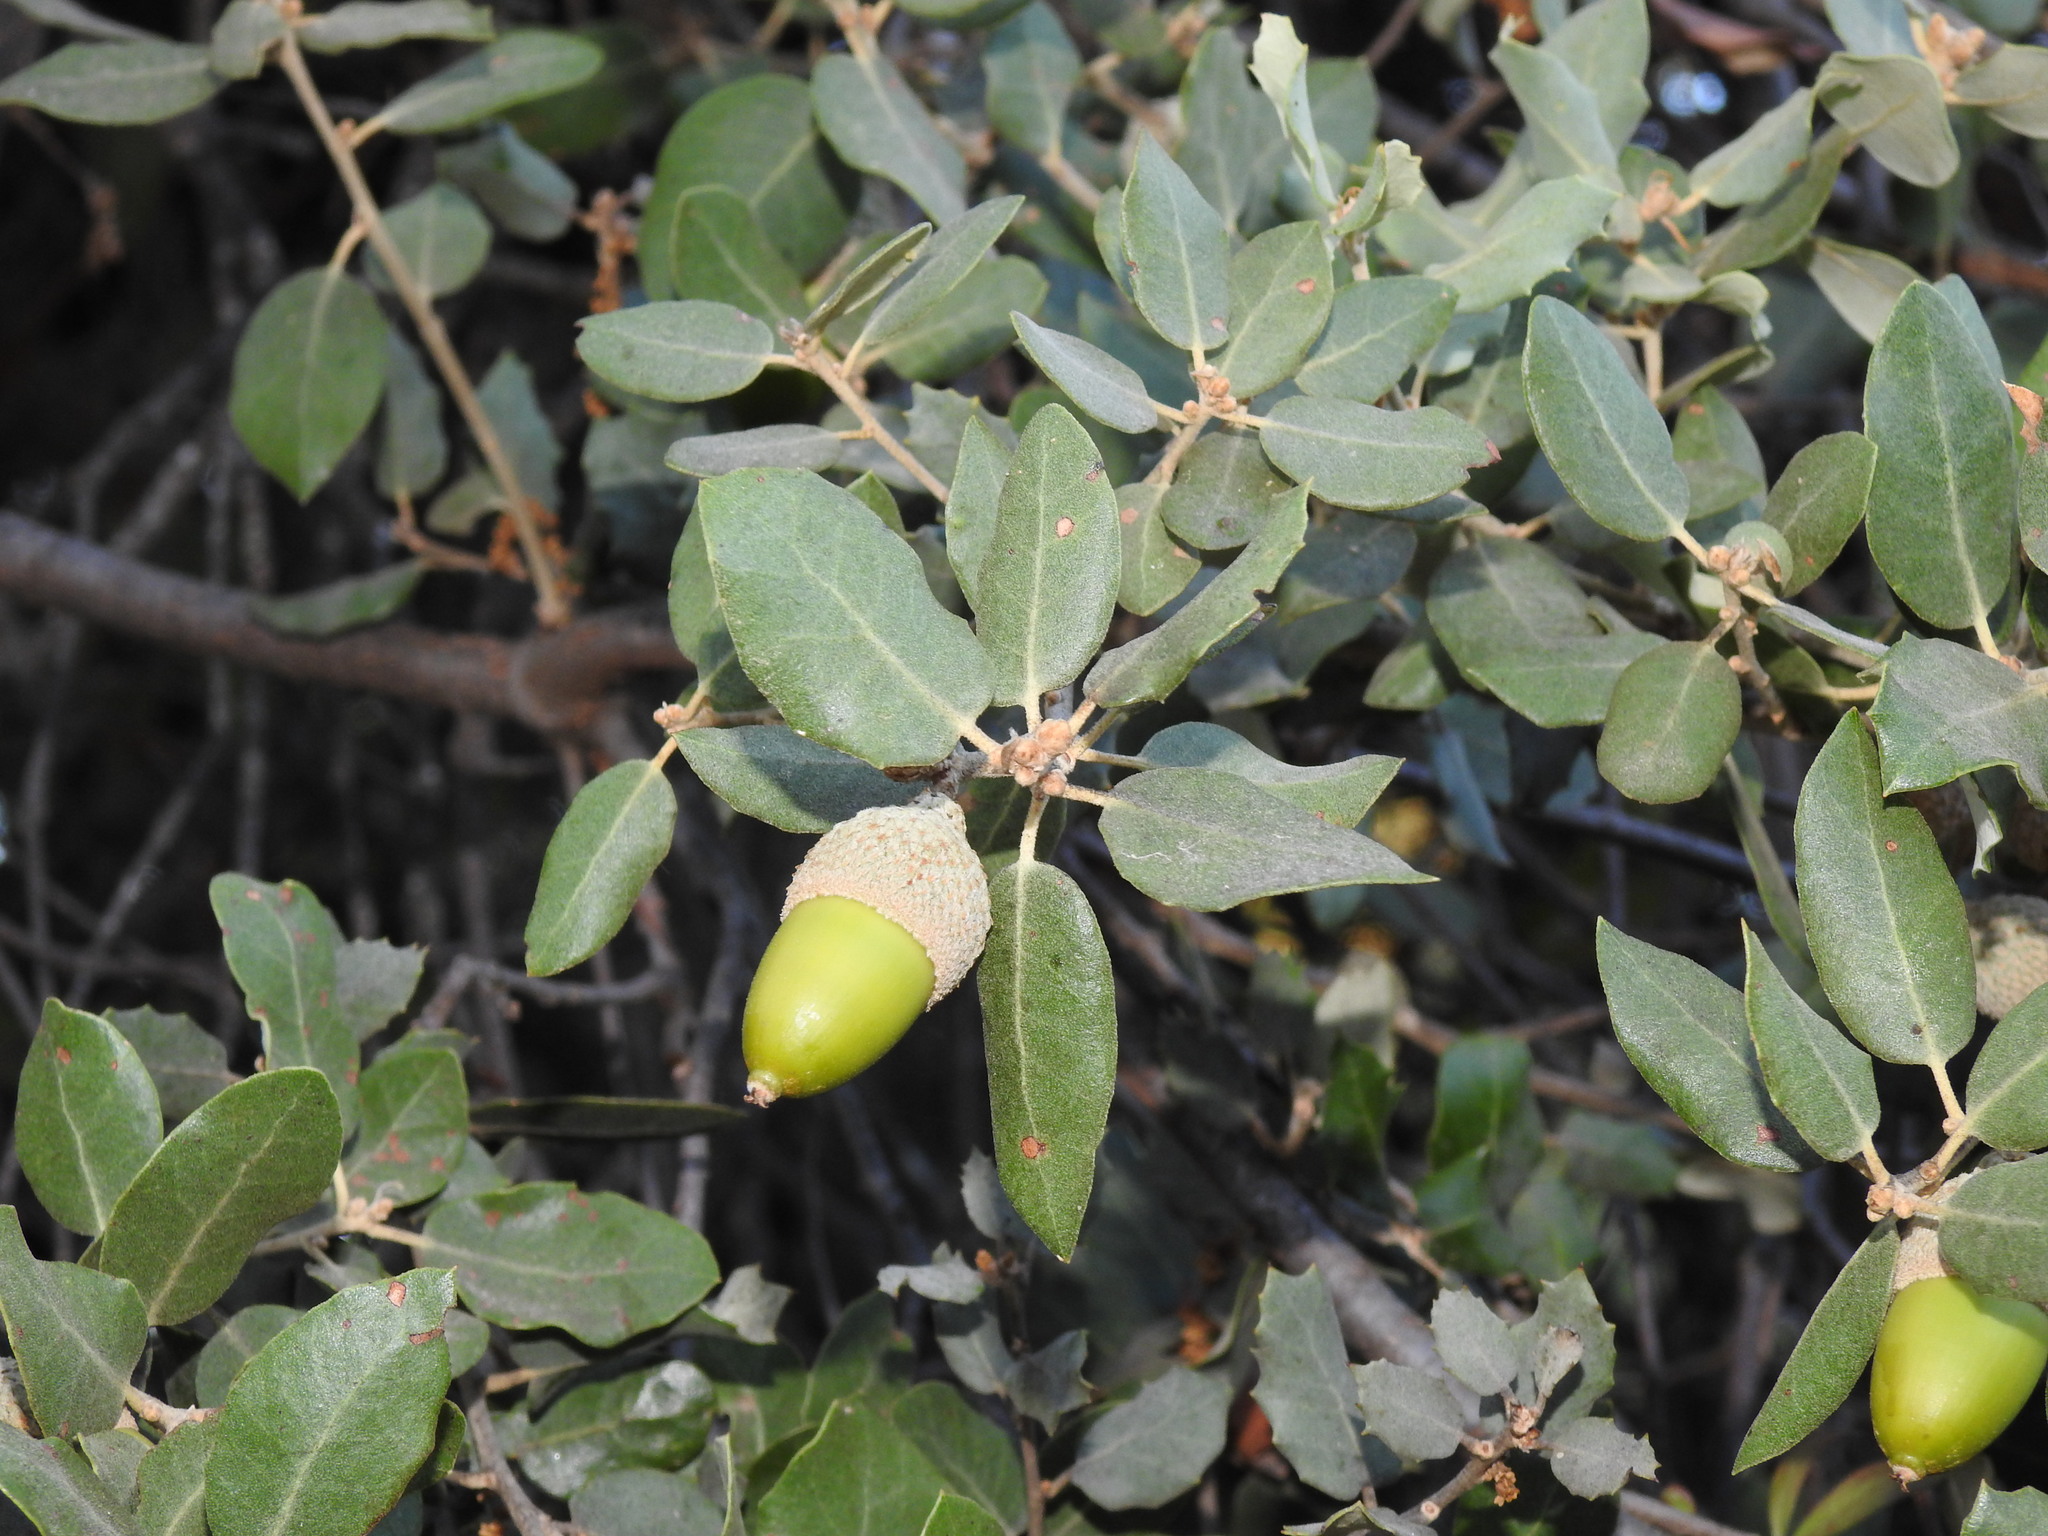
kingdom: Plantae
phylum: Tracheophyta
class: Magnoliopsida
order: Fagales
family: Fagaceae
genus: Quercus
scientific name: Quercus rotundifolia
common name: Holm oak
